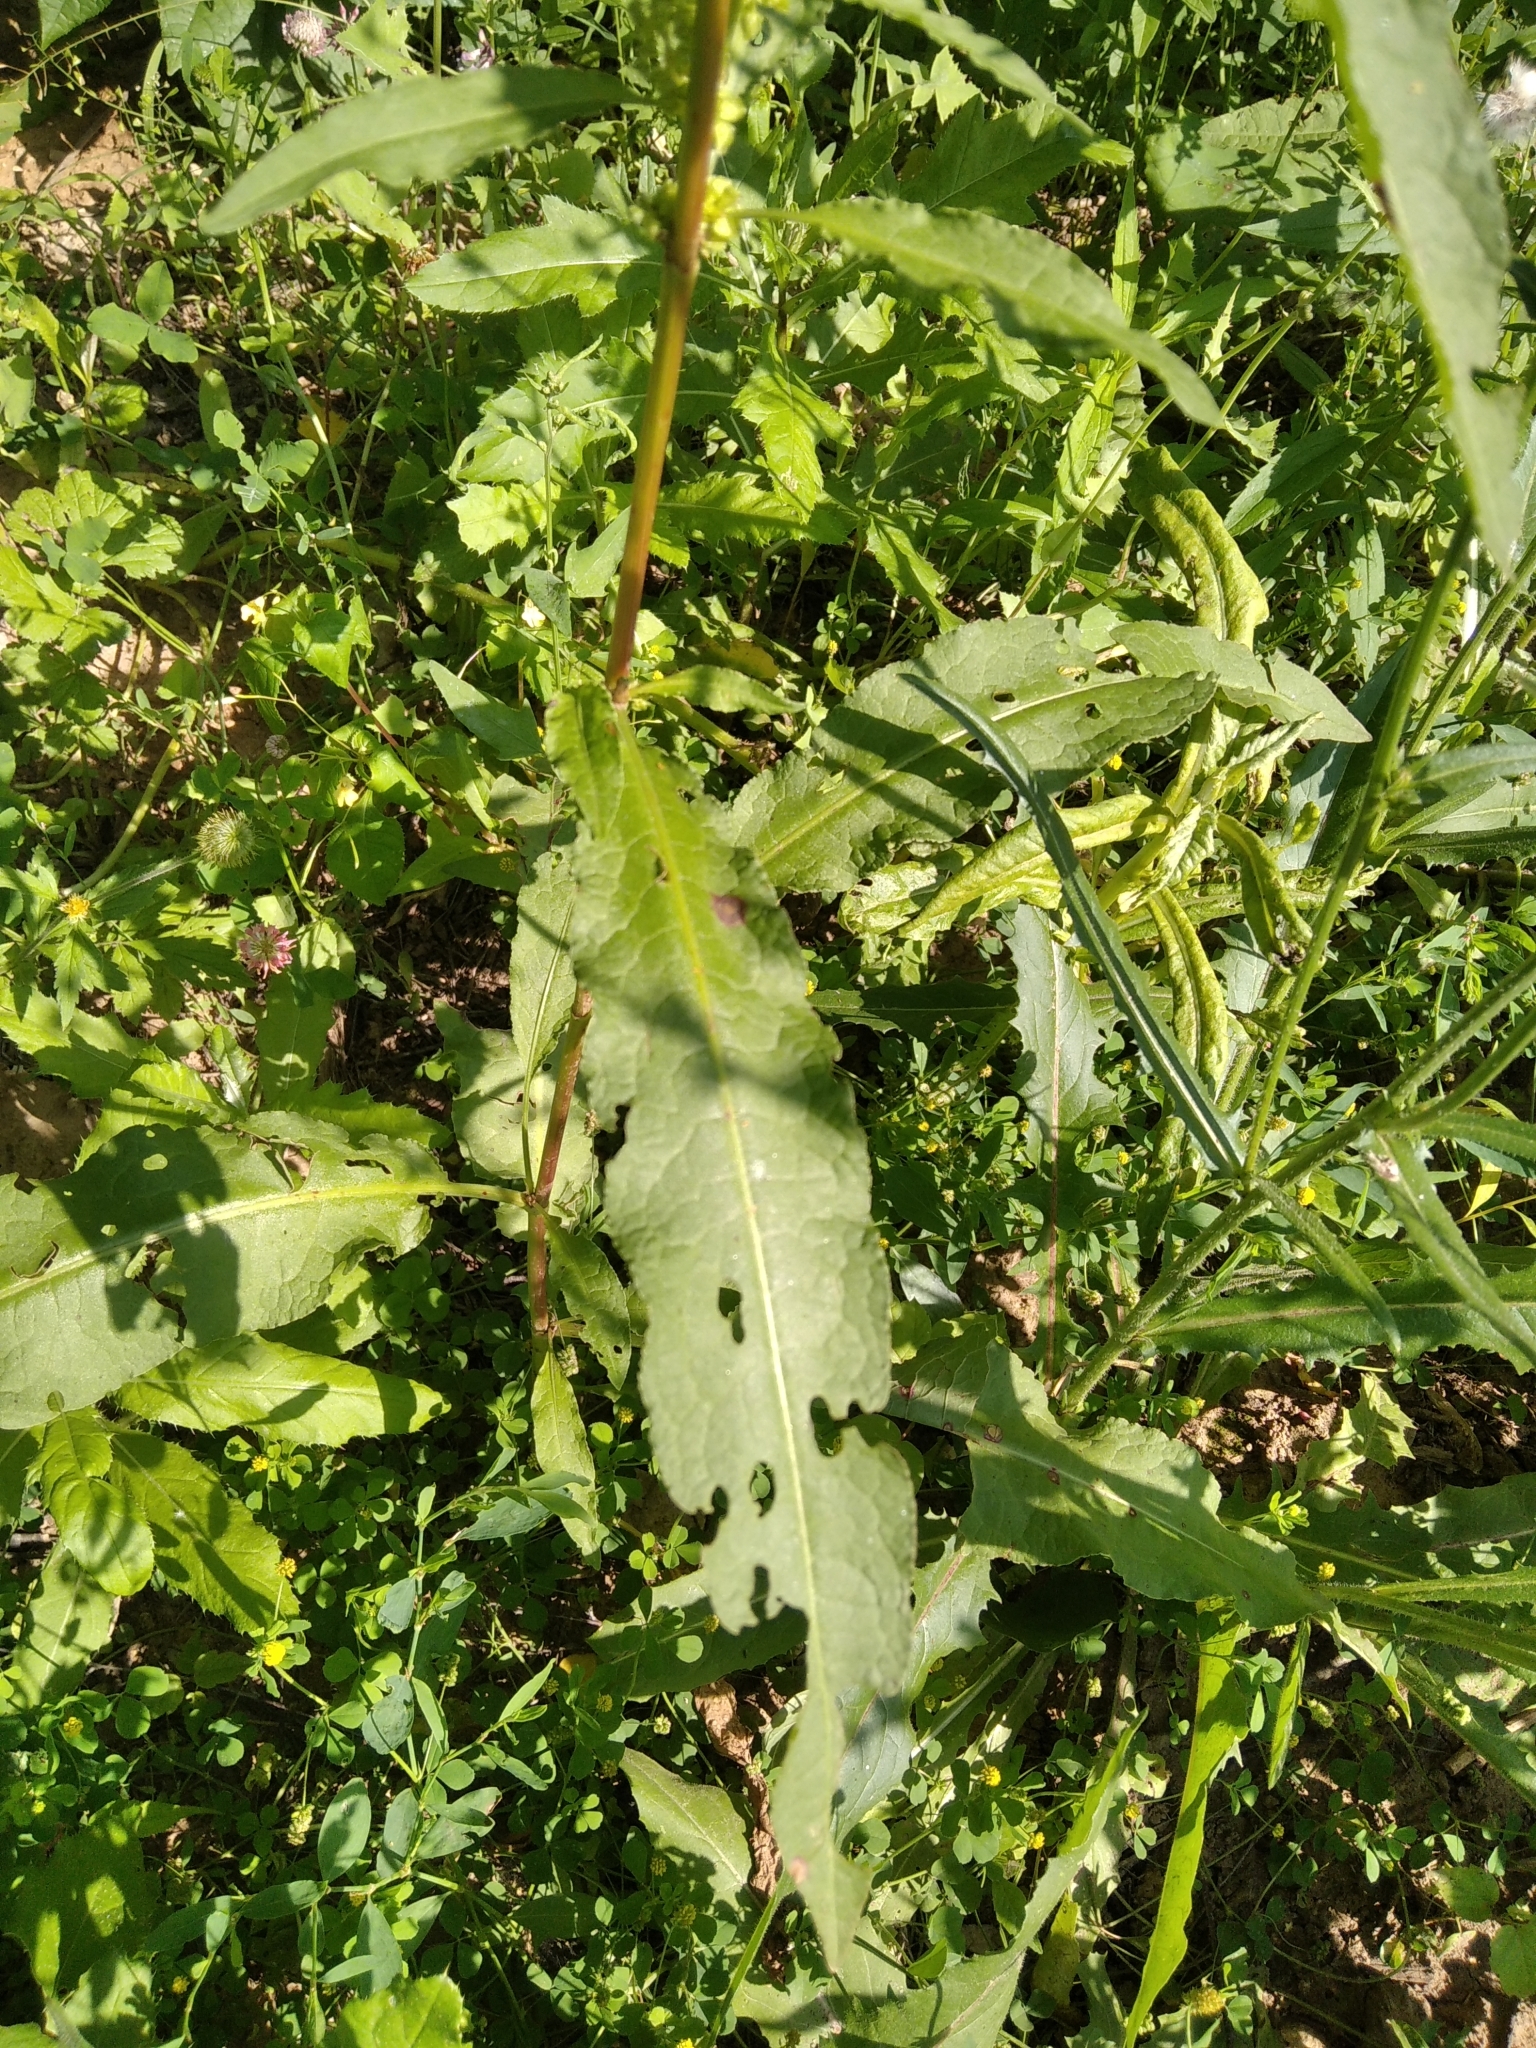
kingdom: Plantae
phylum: Tracheophyta
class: Magnoliopsida
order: Caryophyllales
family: Polygonaceae
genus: Rumex
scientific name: Rumex crispus
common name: Curled dock
